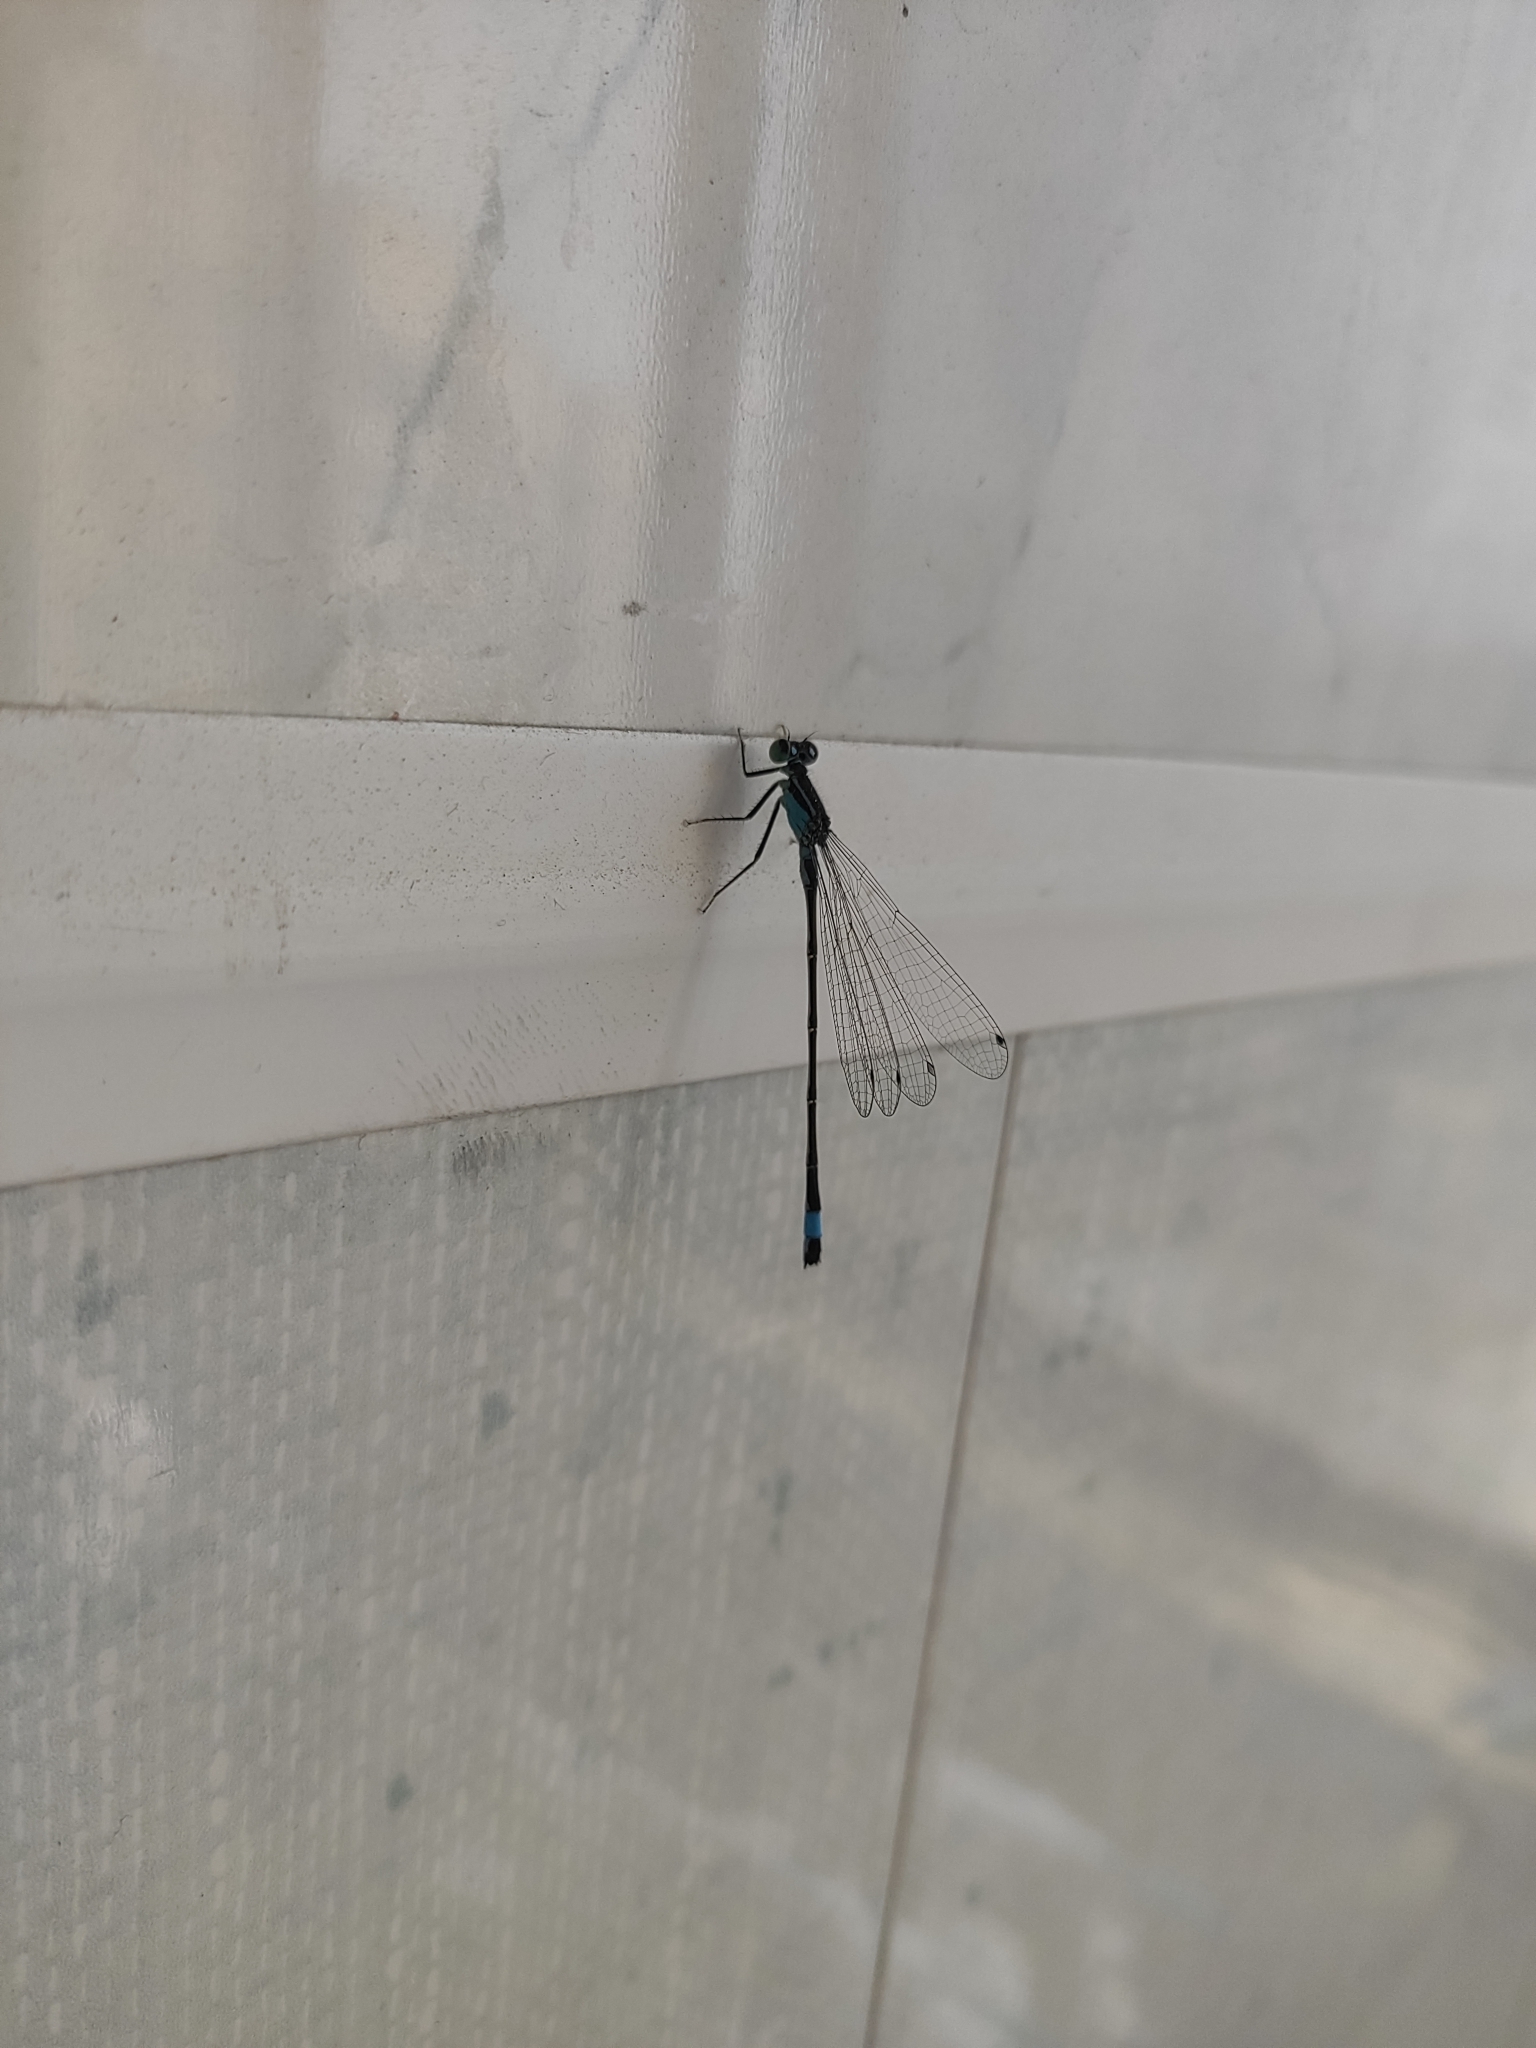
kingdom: Animalia
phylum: Arthropoda
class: Insecta
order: Odonata
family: Coenagrionidae
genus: Ischnura
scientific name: Ischnura elegans
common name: Blue-tailed damselfly
